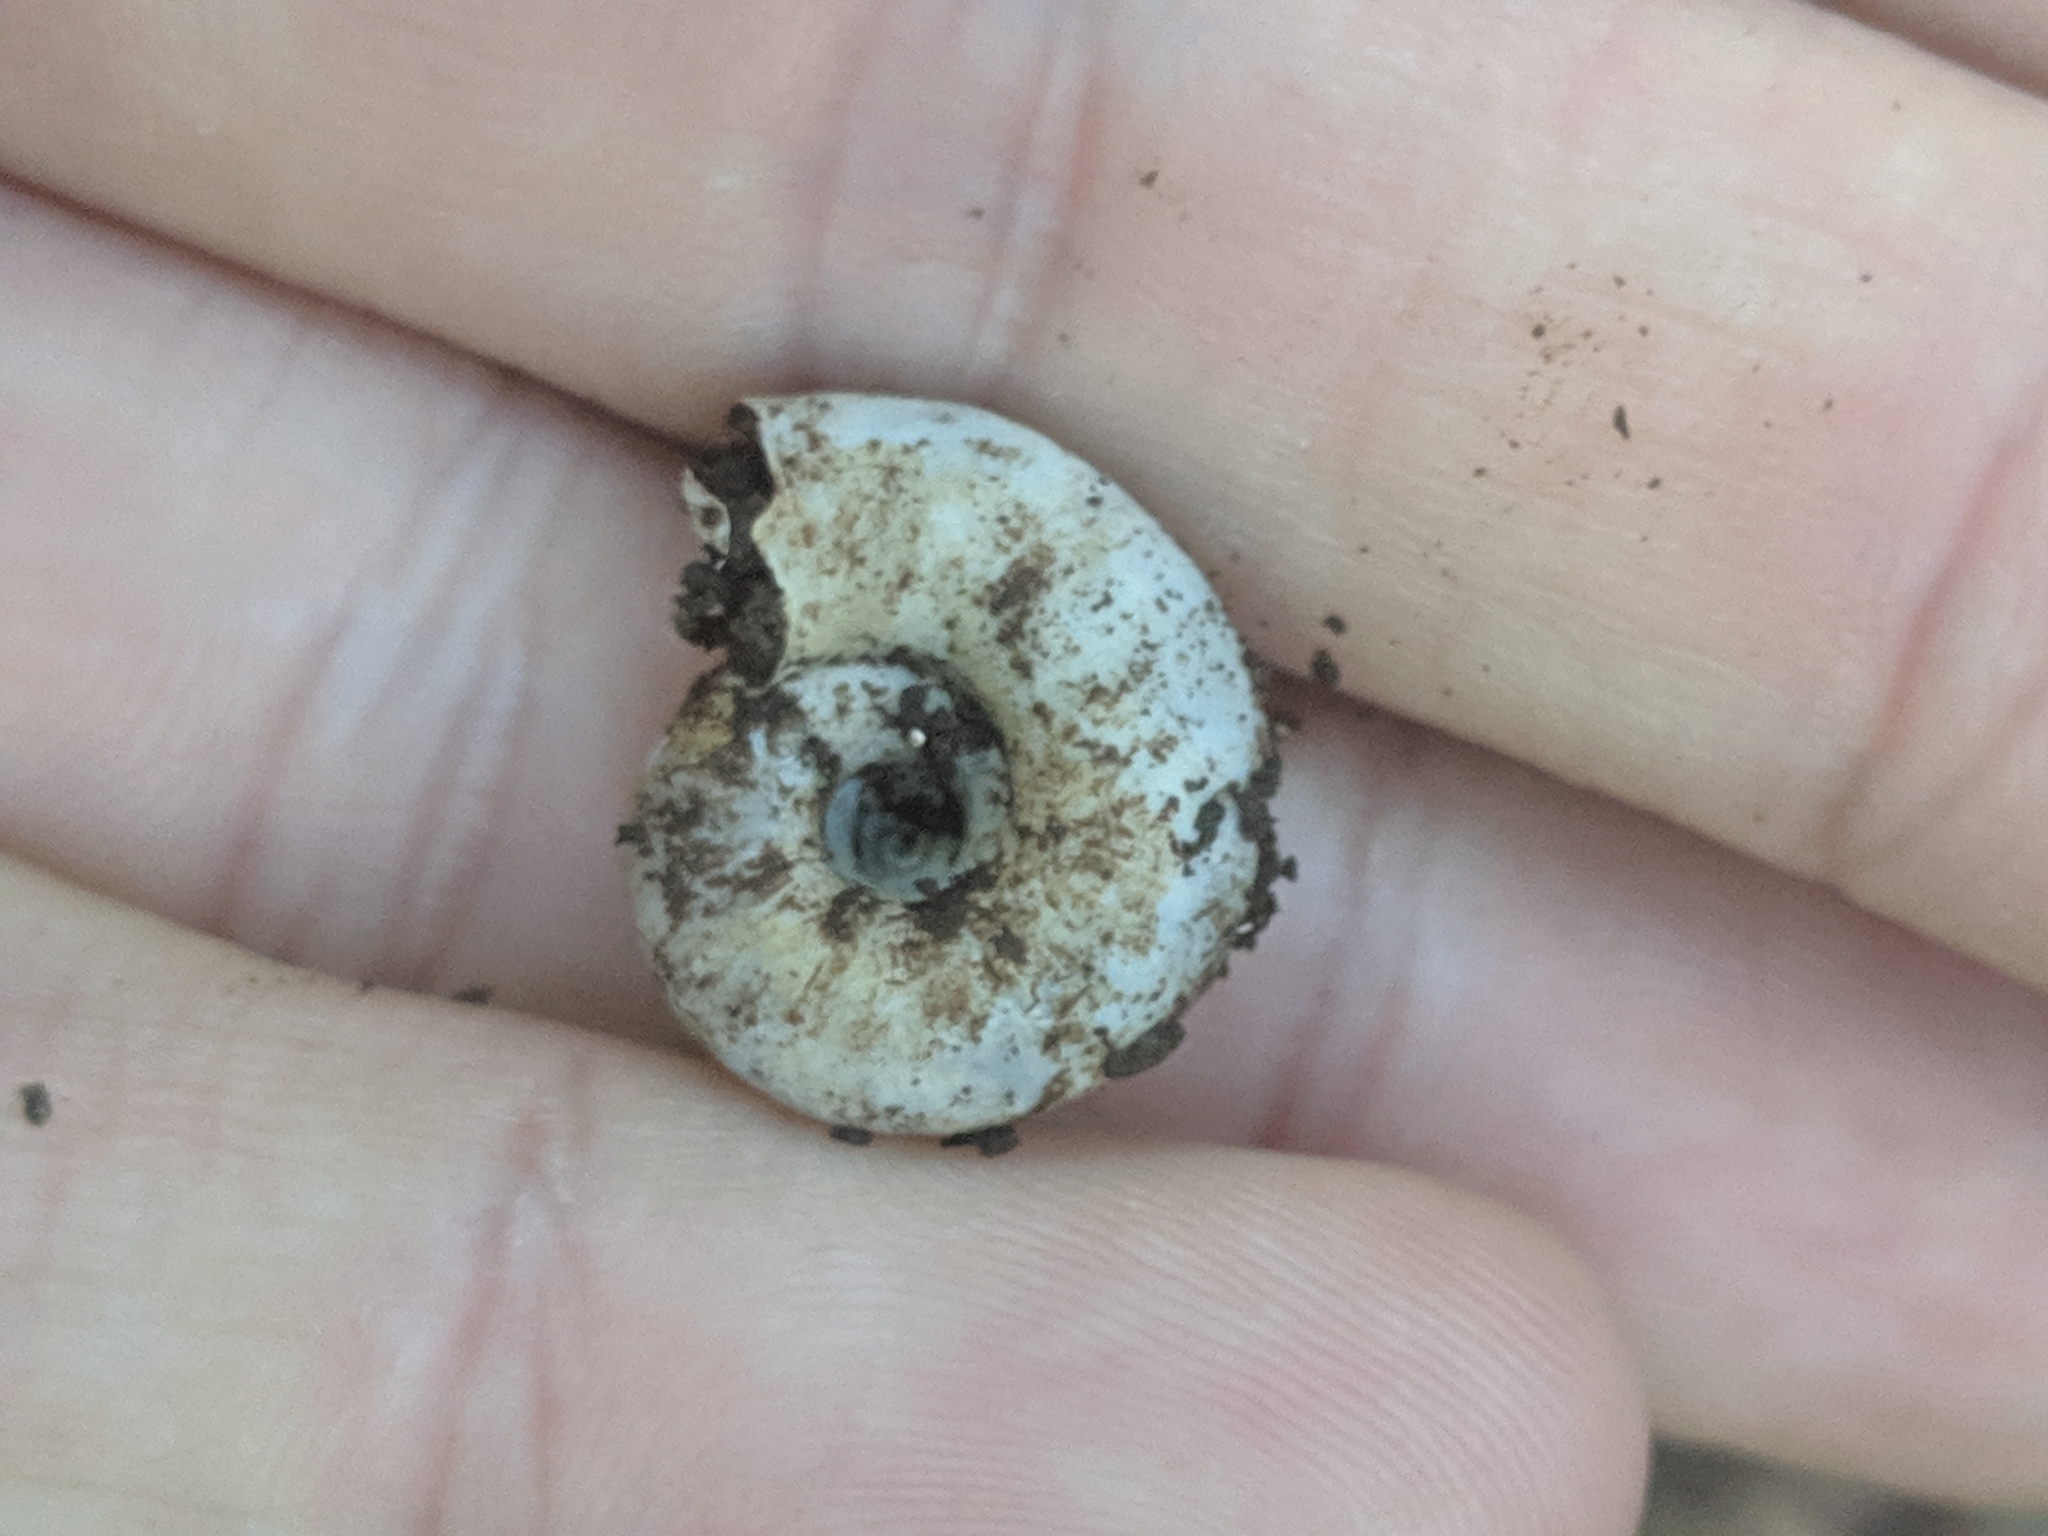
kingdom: Animalia
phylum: Mollusca
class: Gastropoda
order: Stylommatophora
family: Haplotrematidae
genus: Haplotrema
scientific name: Haplotrema concavum
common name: Gray-foot lancetooth
